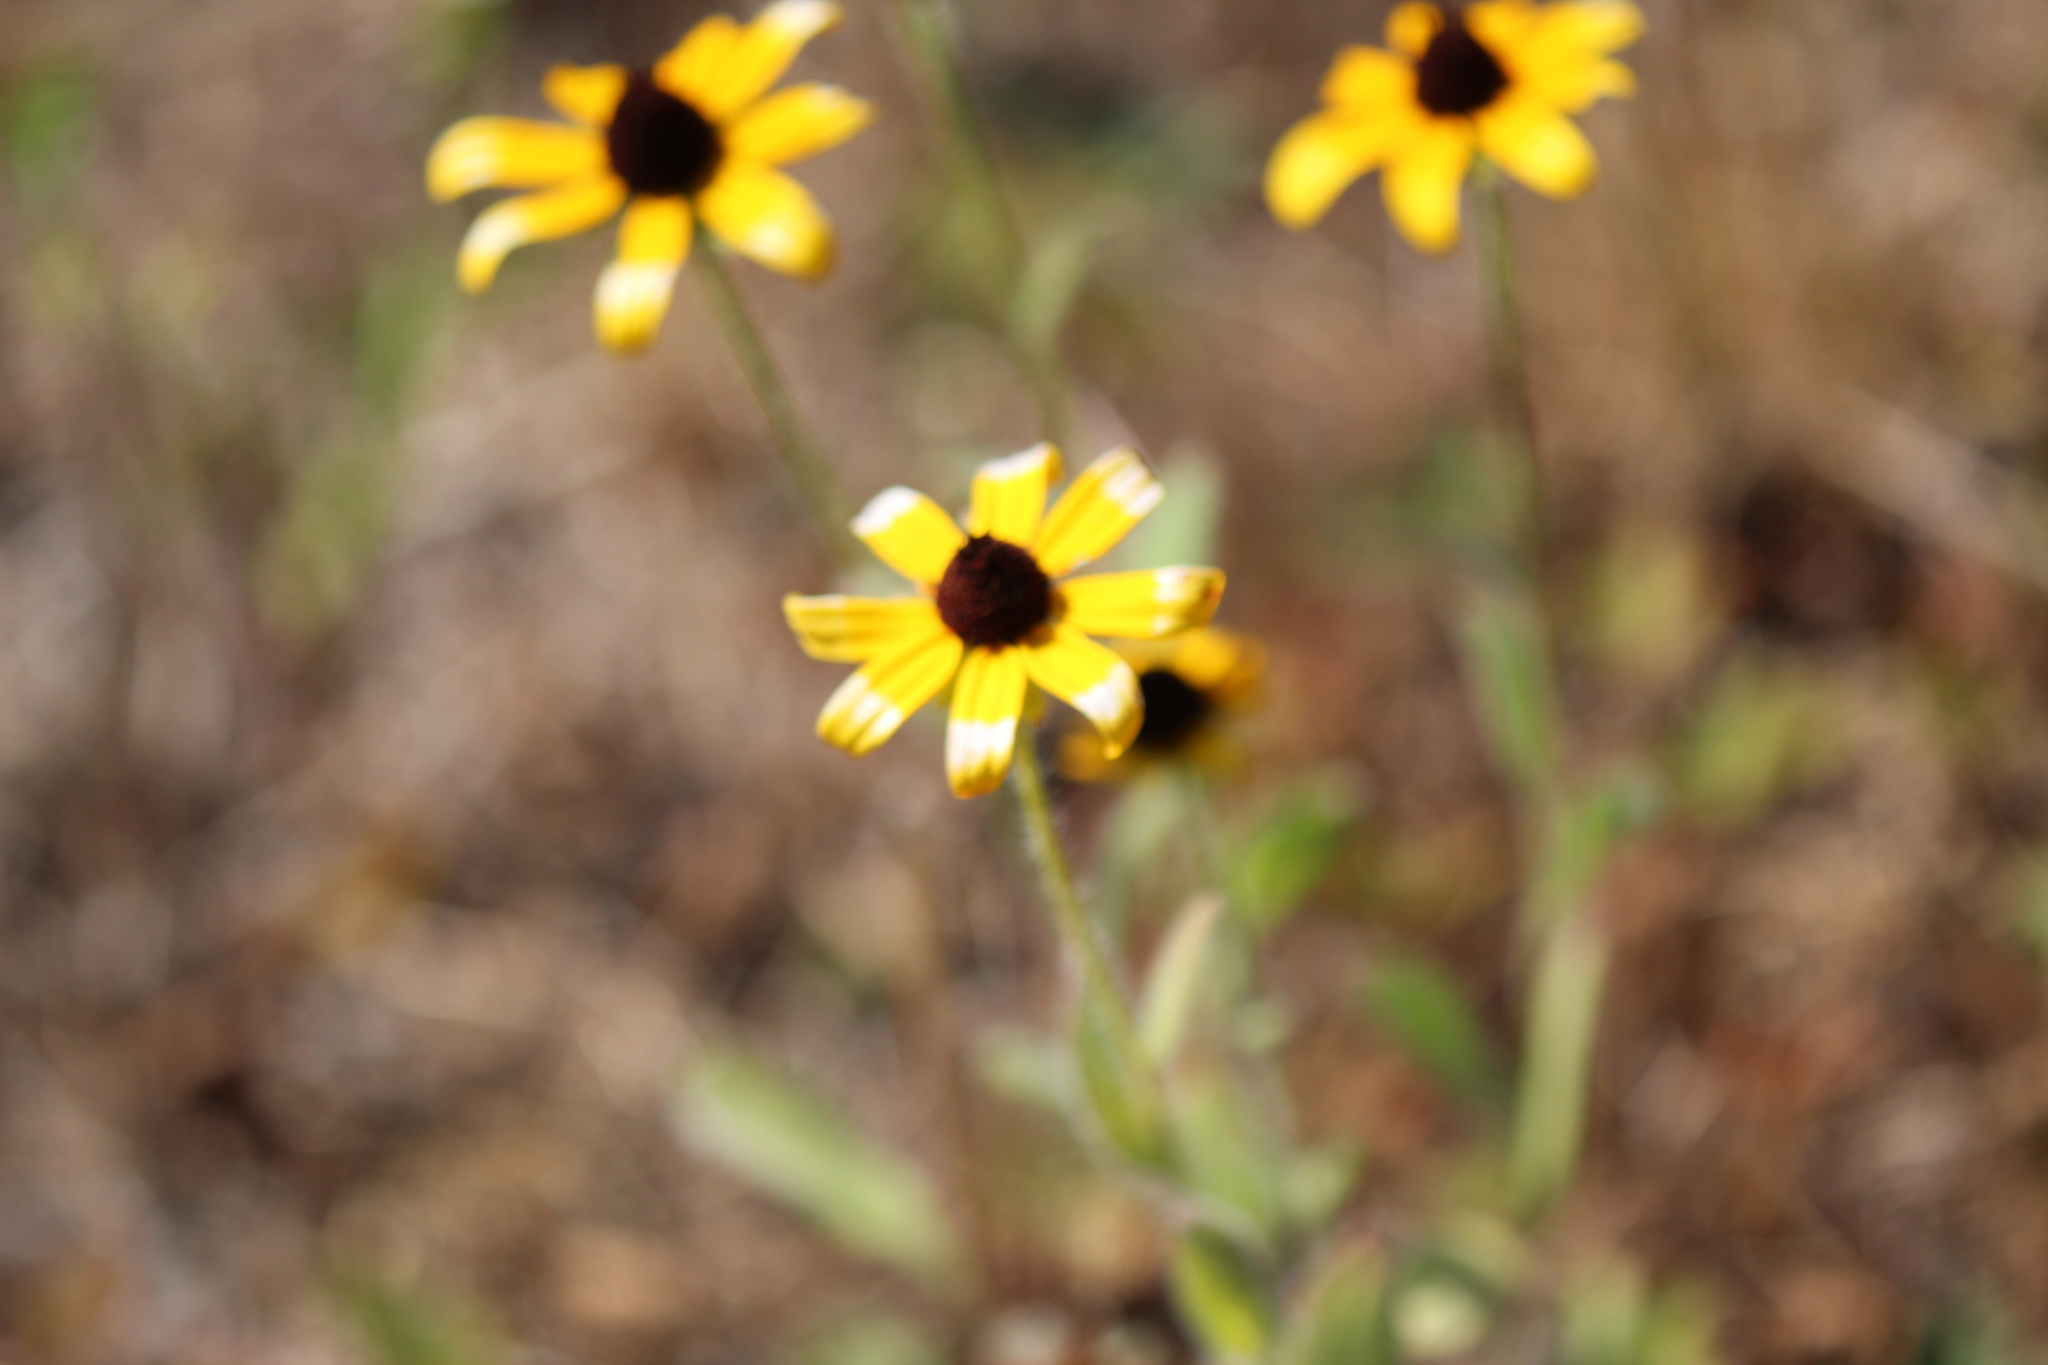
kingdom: Plantae
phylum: Tracheophyta
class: Magnoliopsida
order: Asterales
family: Asteraceae
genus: Rudbeckia
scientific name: Rudbeckia hirta
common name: Black-eyed-susan
